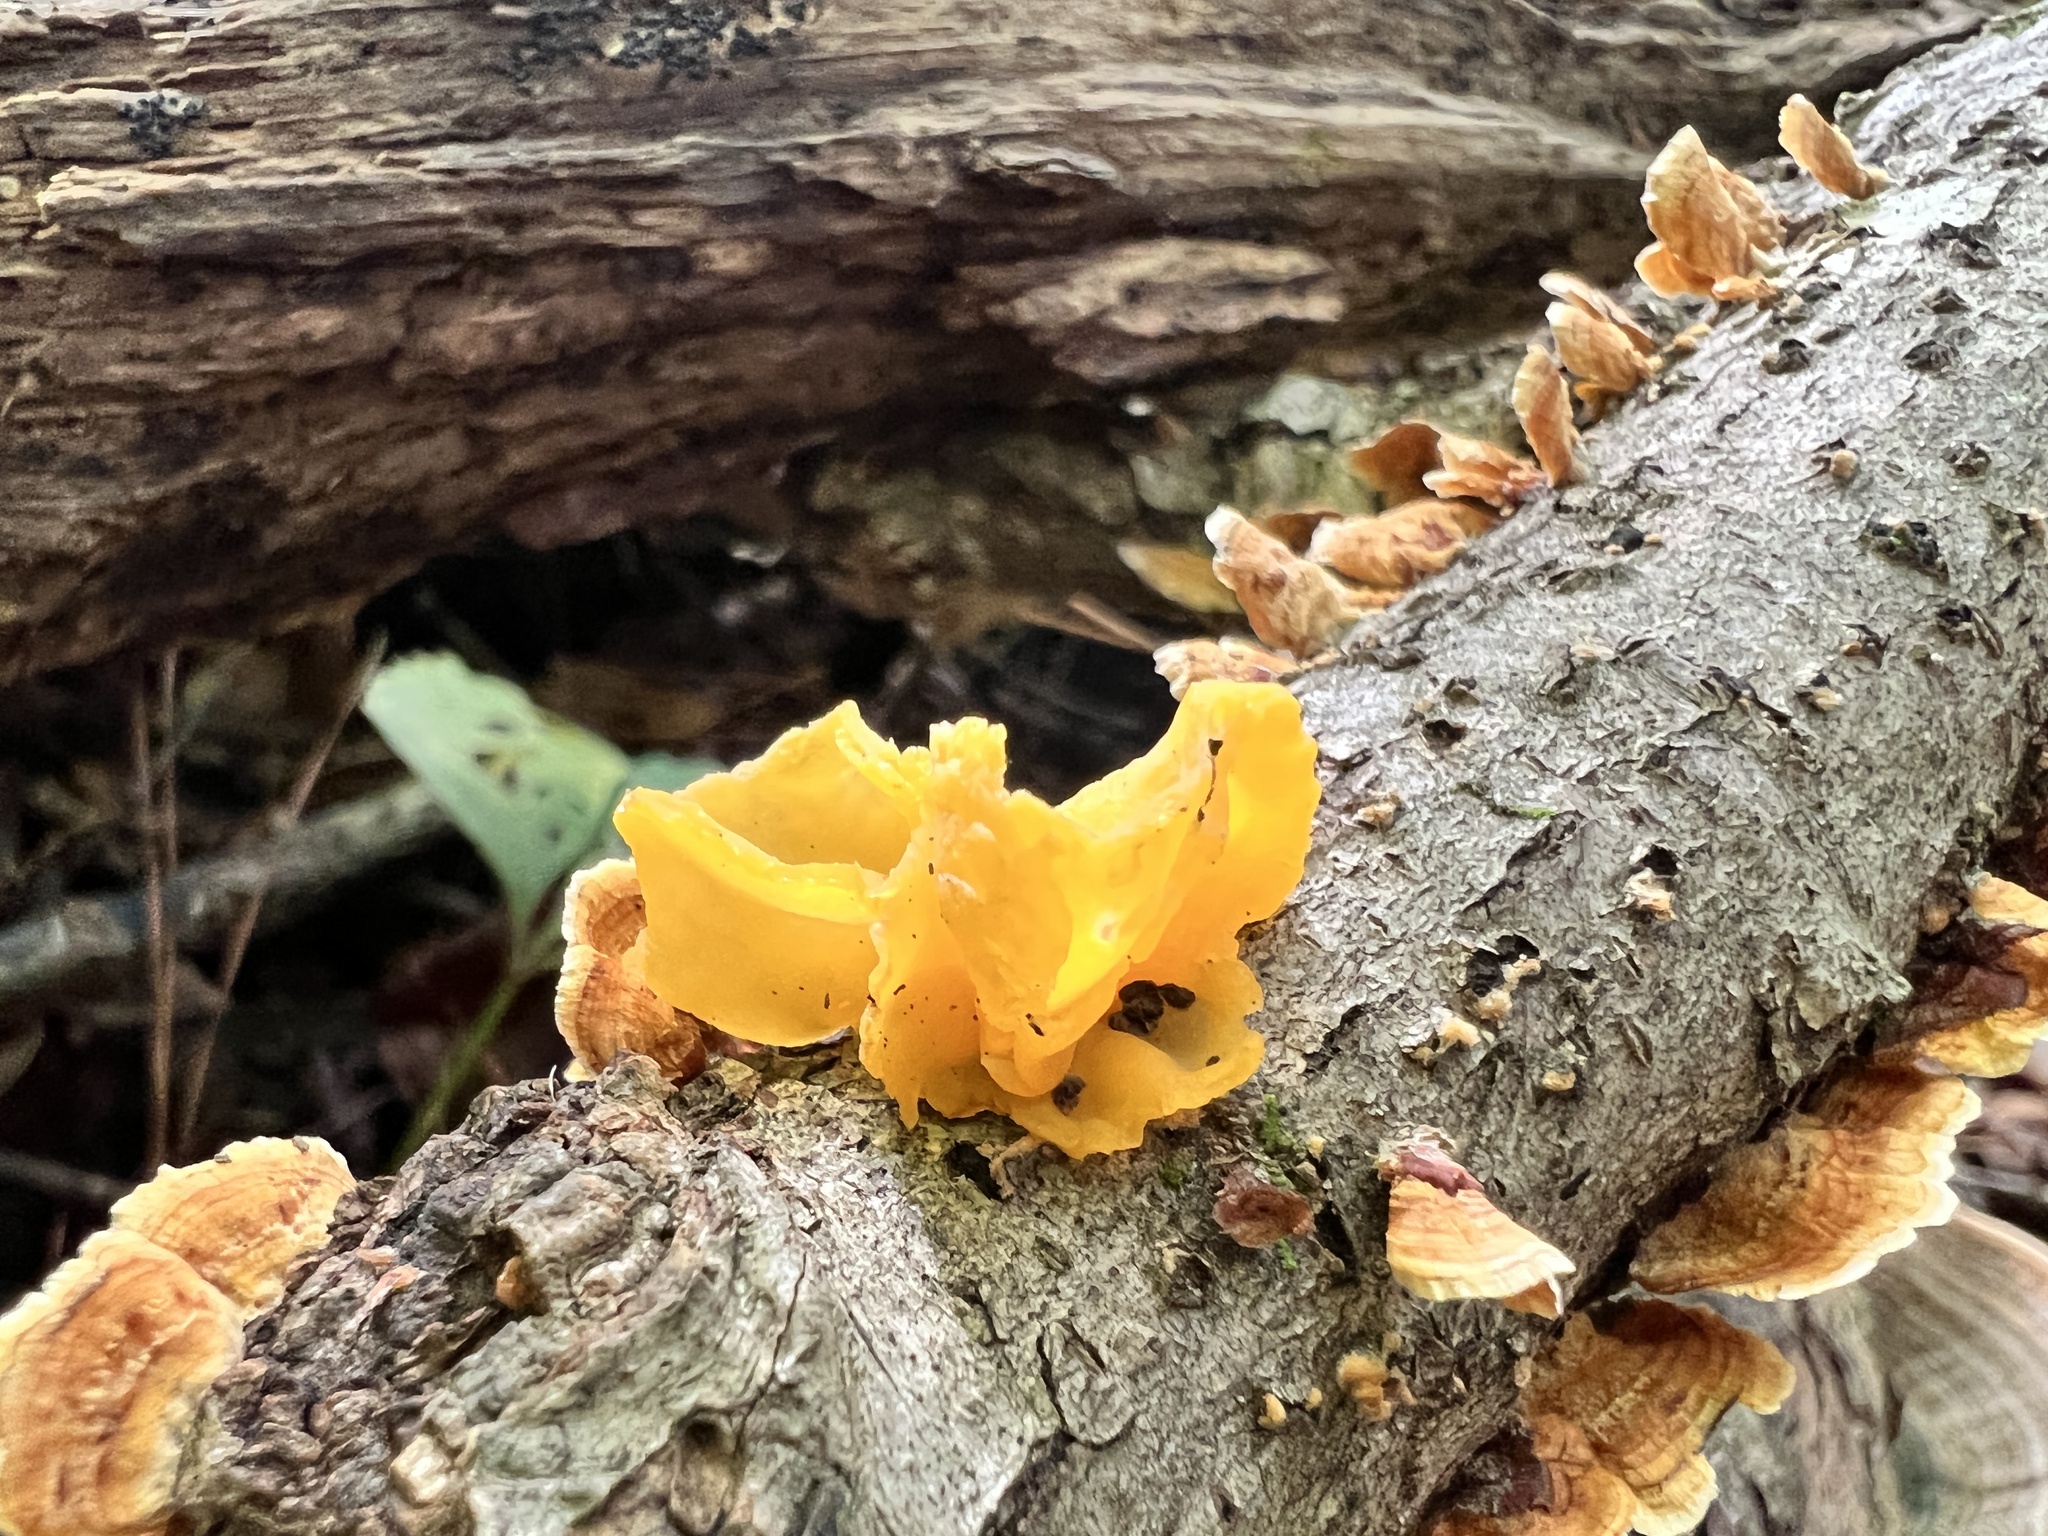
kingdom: Fungi
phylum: Basidiomycota
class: Tremellomycetes
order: Tremellales
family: Naemateliaceae
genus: Naematelia
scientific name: Naematelia aurantia
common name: Golden ear
